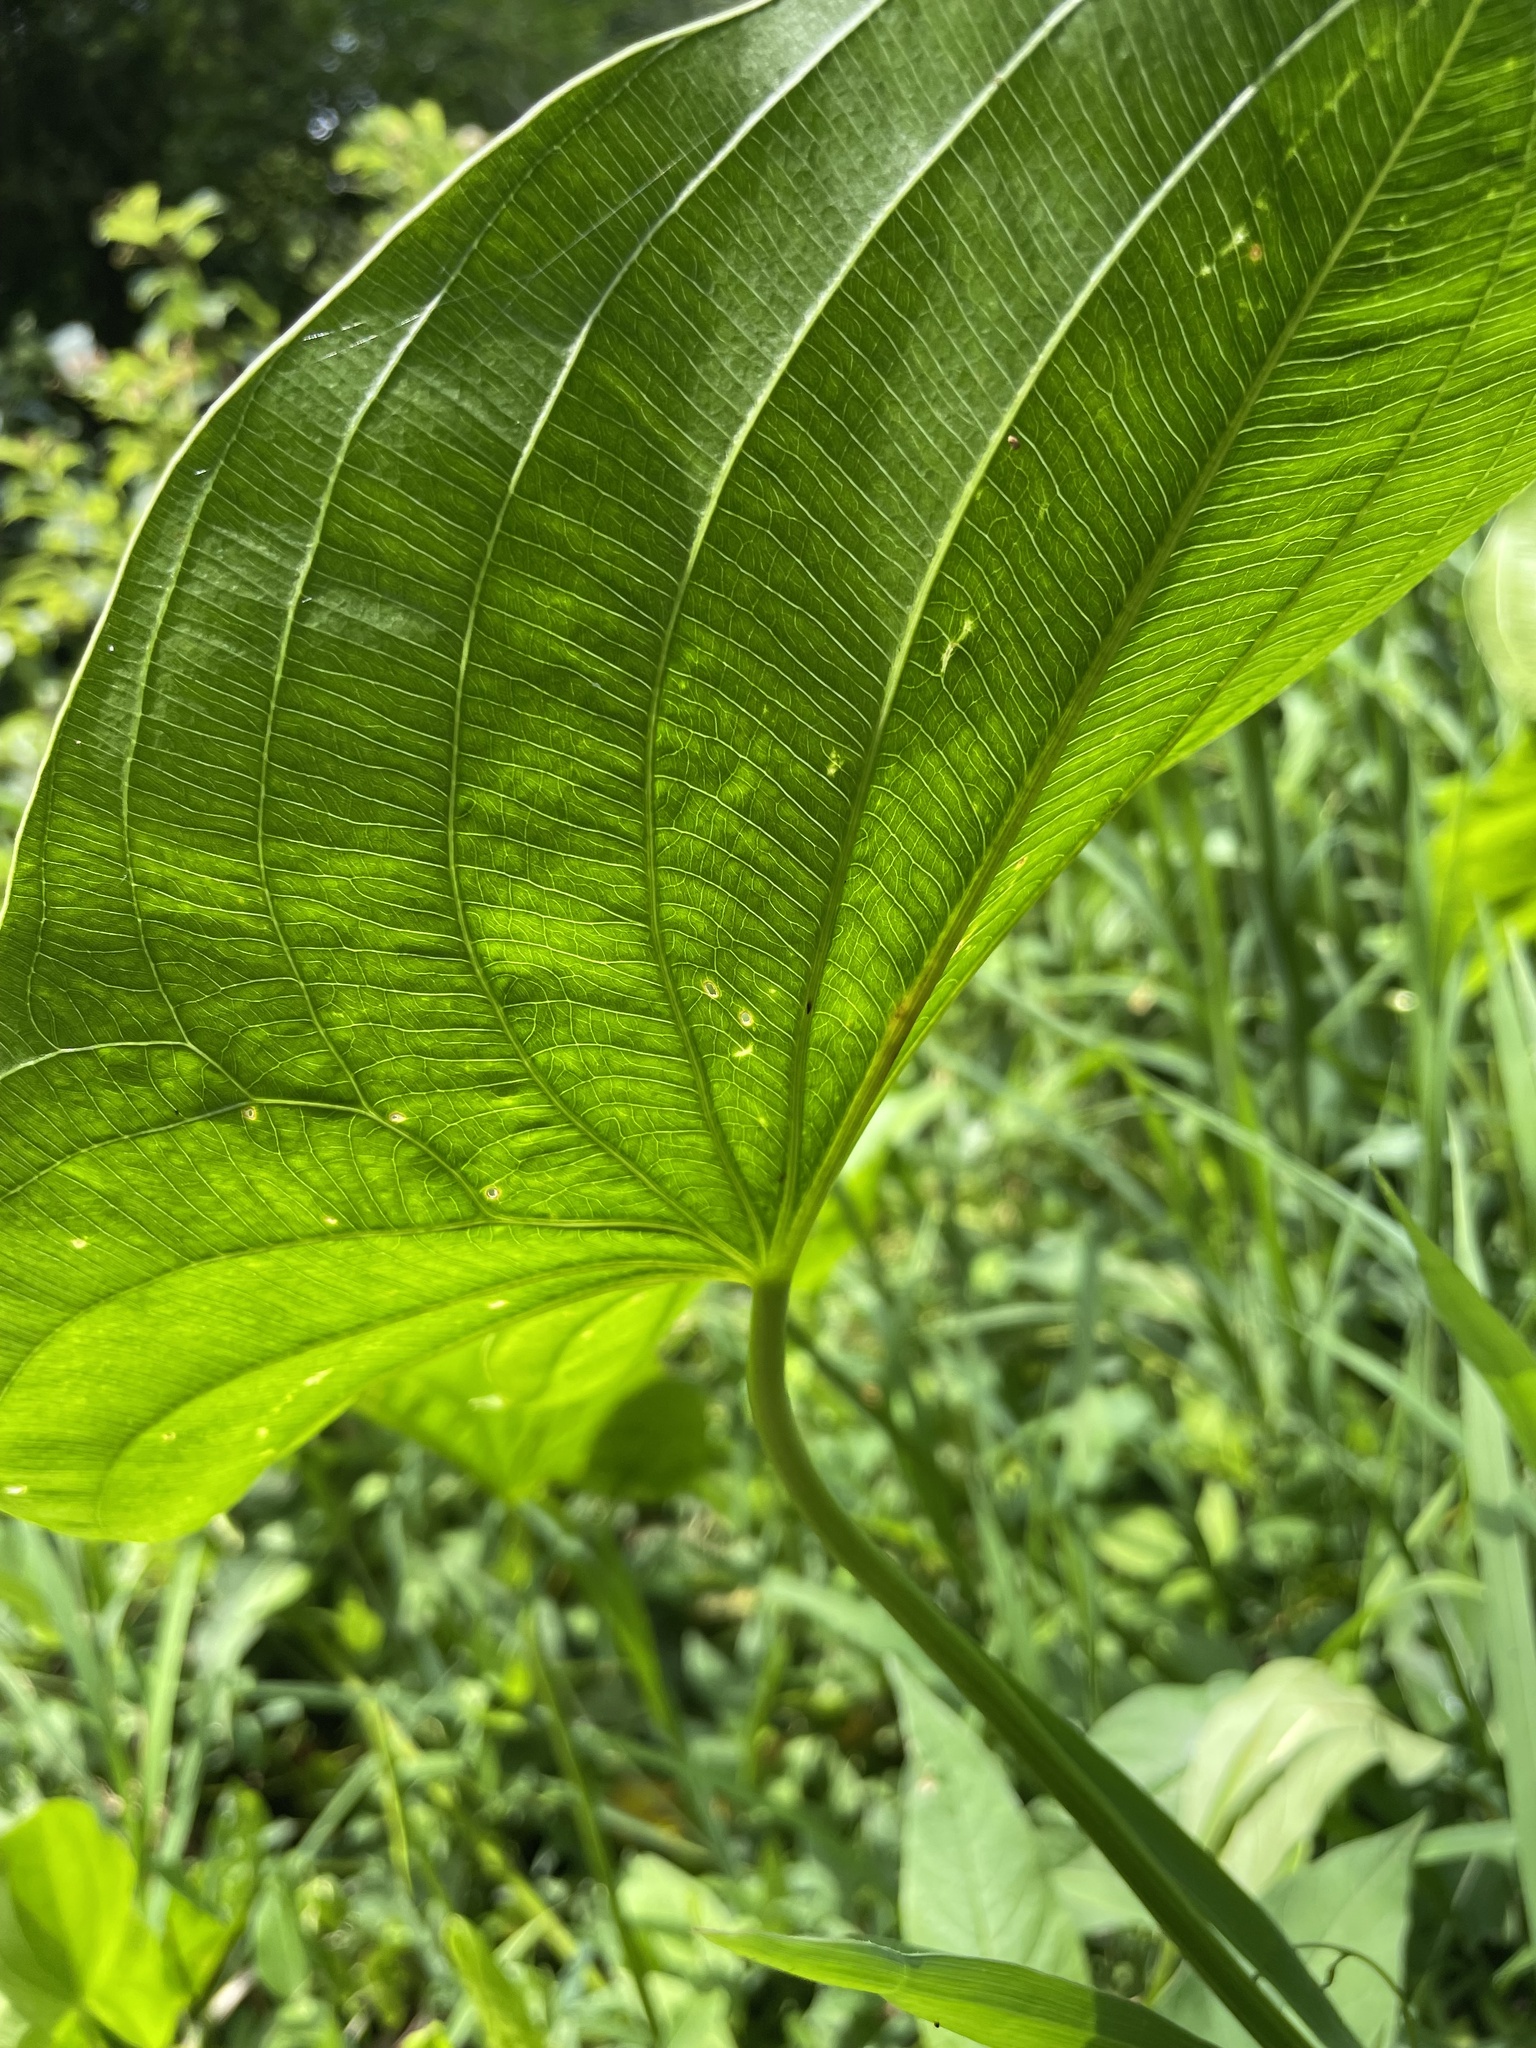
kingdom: Plantae
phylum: Tracheophyta
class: Liliopsida
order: Alismatales
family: Alismataceae
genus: Sagittaria
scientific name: Sagittaria latifolia
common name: Duck-potato
